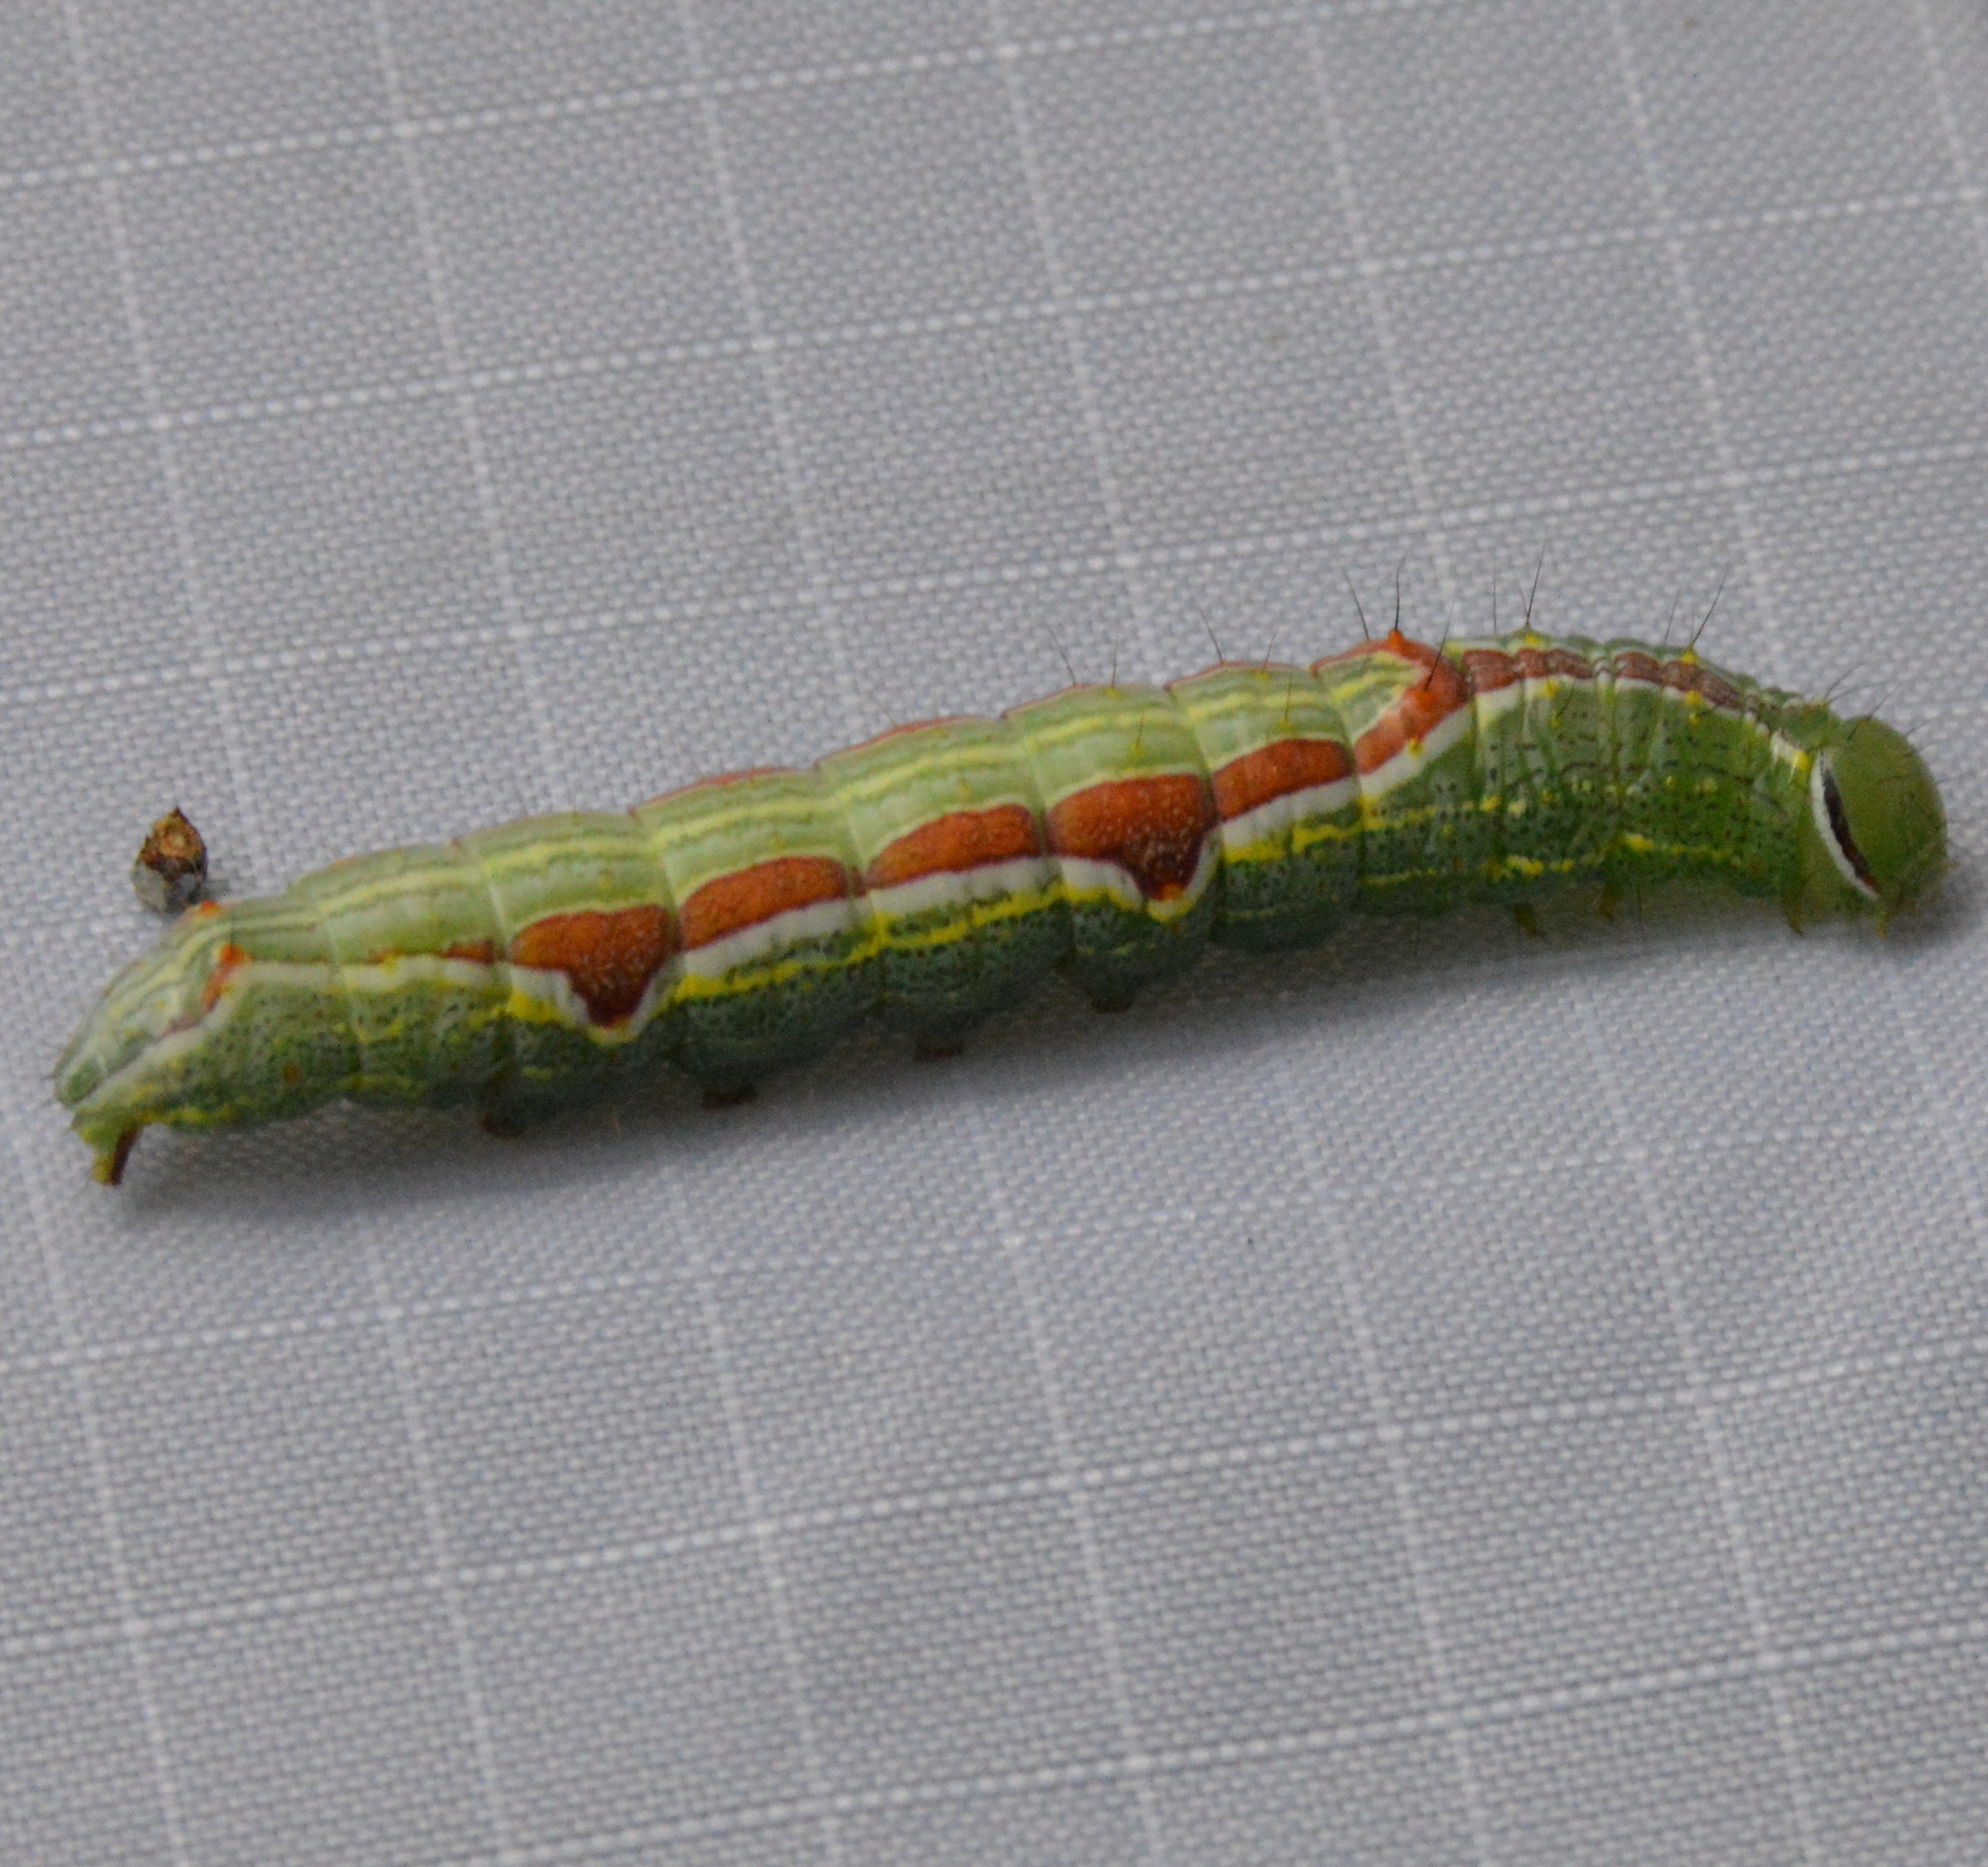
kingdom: Animalia
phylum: Arthropoda
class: Insecta
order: Lepidoptera
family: Notodontidae
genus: Lochmaeus
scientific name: Lochmaeus bilineata
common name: Double-lined prominent
